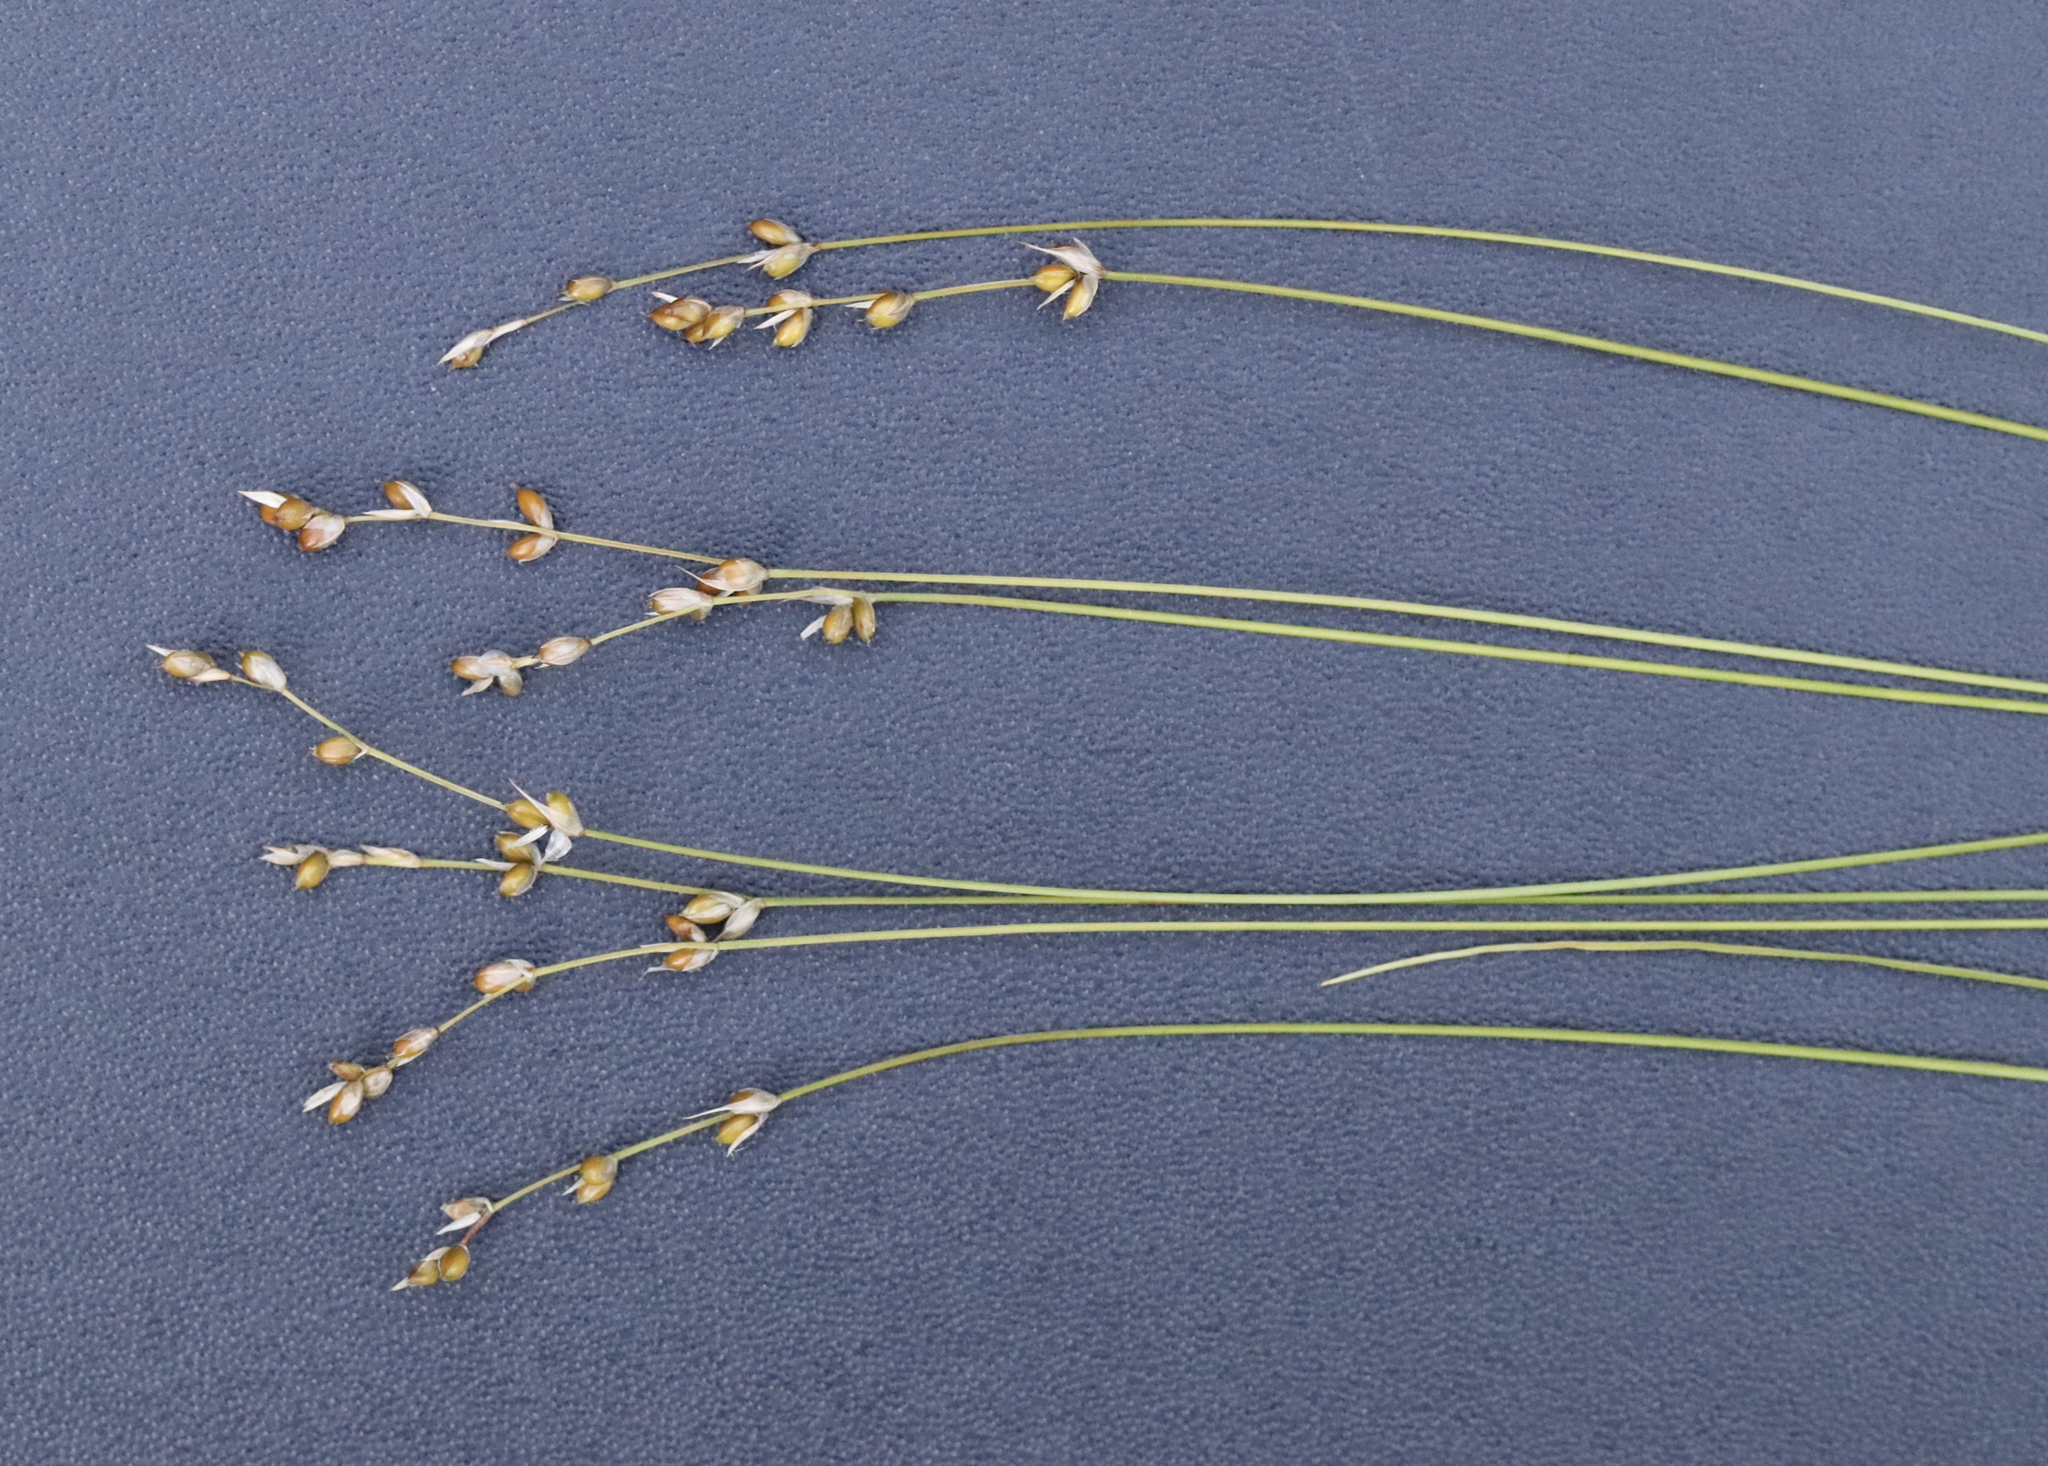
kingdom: Plantae
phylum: Tracheophyta
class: Liliopsida
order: Poales
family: Cyperaceae
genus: Carex
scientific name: Carex disperma
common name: Short-leaved sedge
